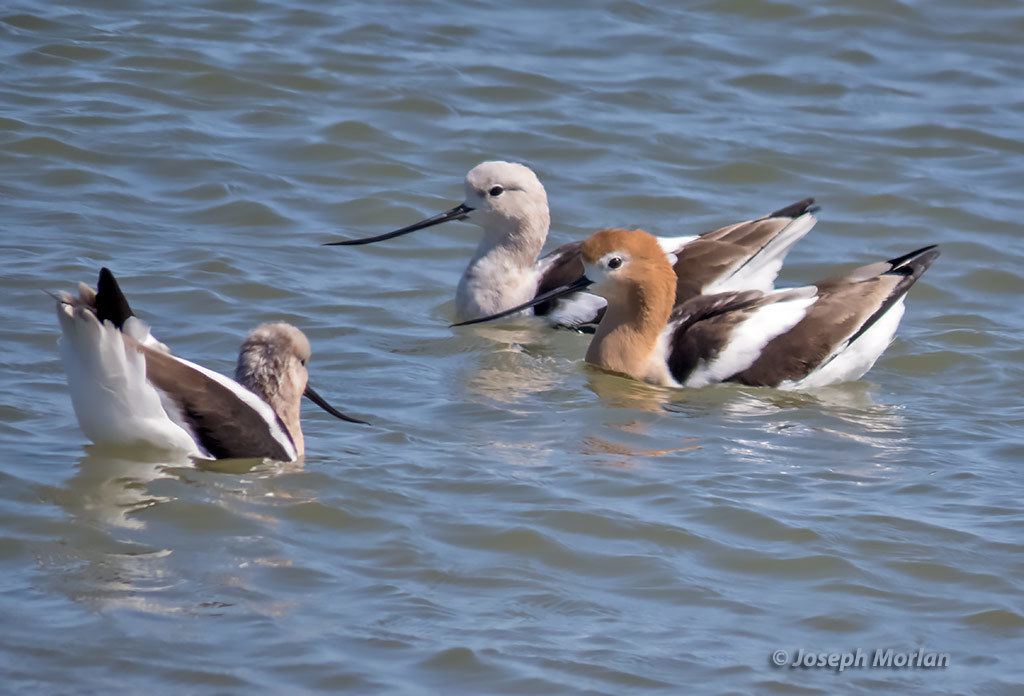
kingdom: Animalia
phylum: Chordata
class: Aves
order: Charadriiformes
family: Recurvirostridae
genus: Recurvirostra
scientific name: Recurvirostra americana
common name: American avocet
